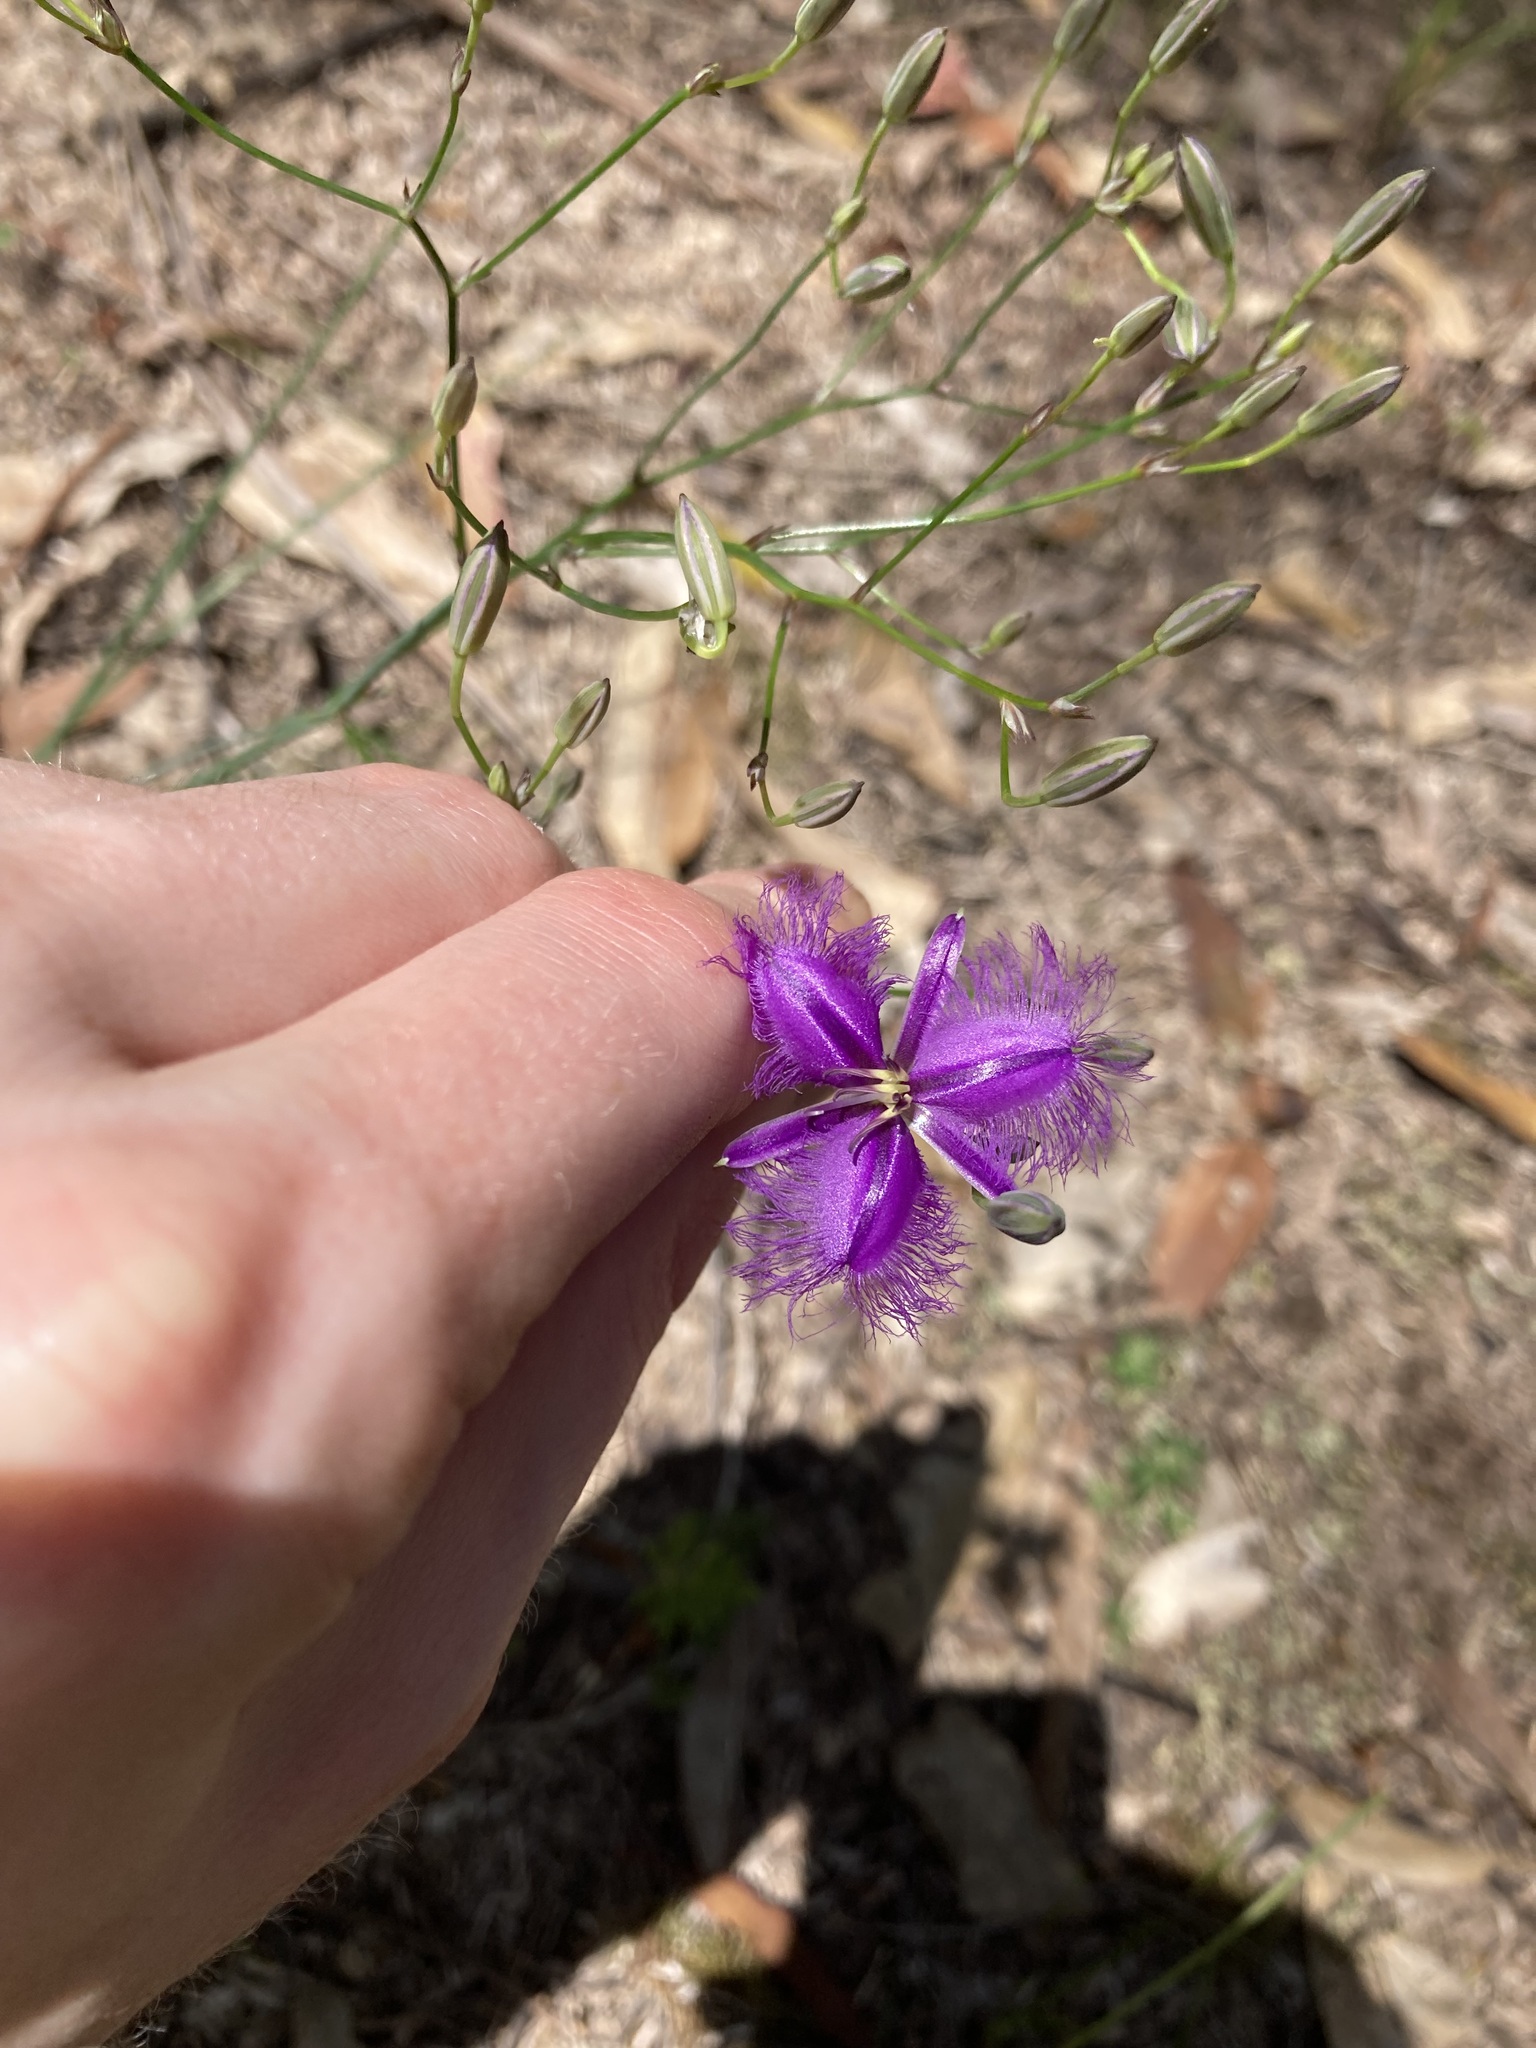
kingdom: Plantae
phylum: Tracheophyta
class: Liliopsida
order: Asparagales
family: Asparagaceae
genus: Thysanotus
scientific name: Thysanotus tuberosus
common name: Common fringed-lily
